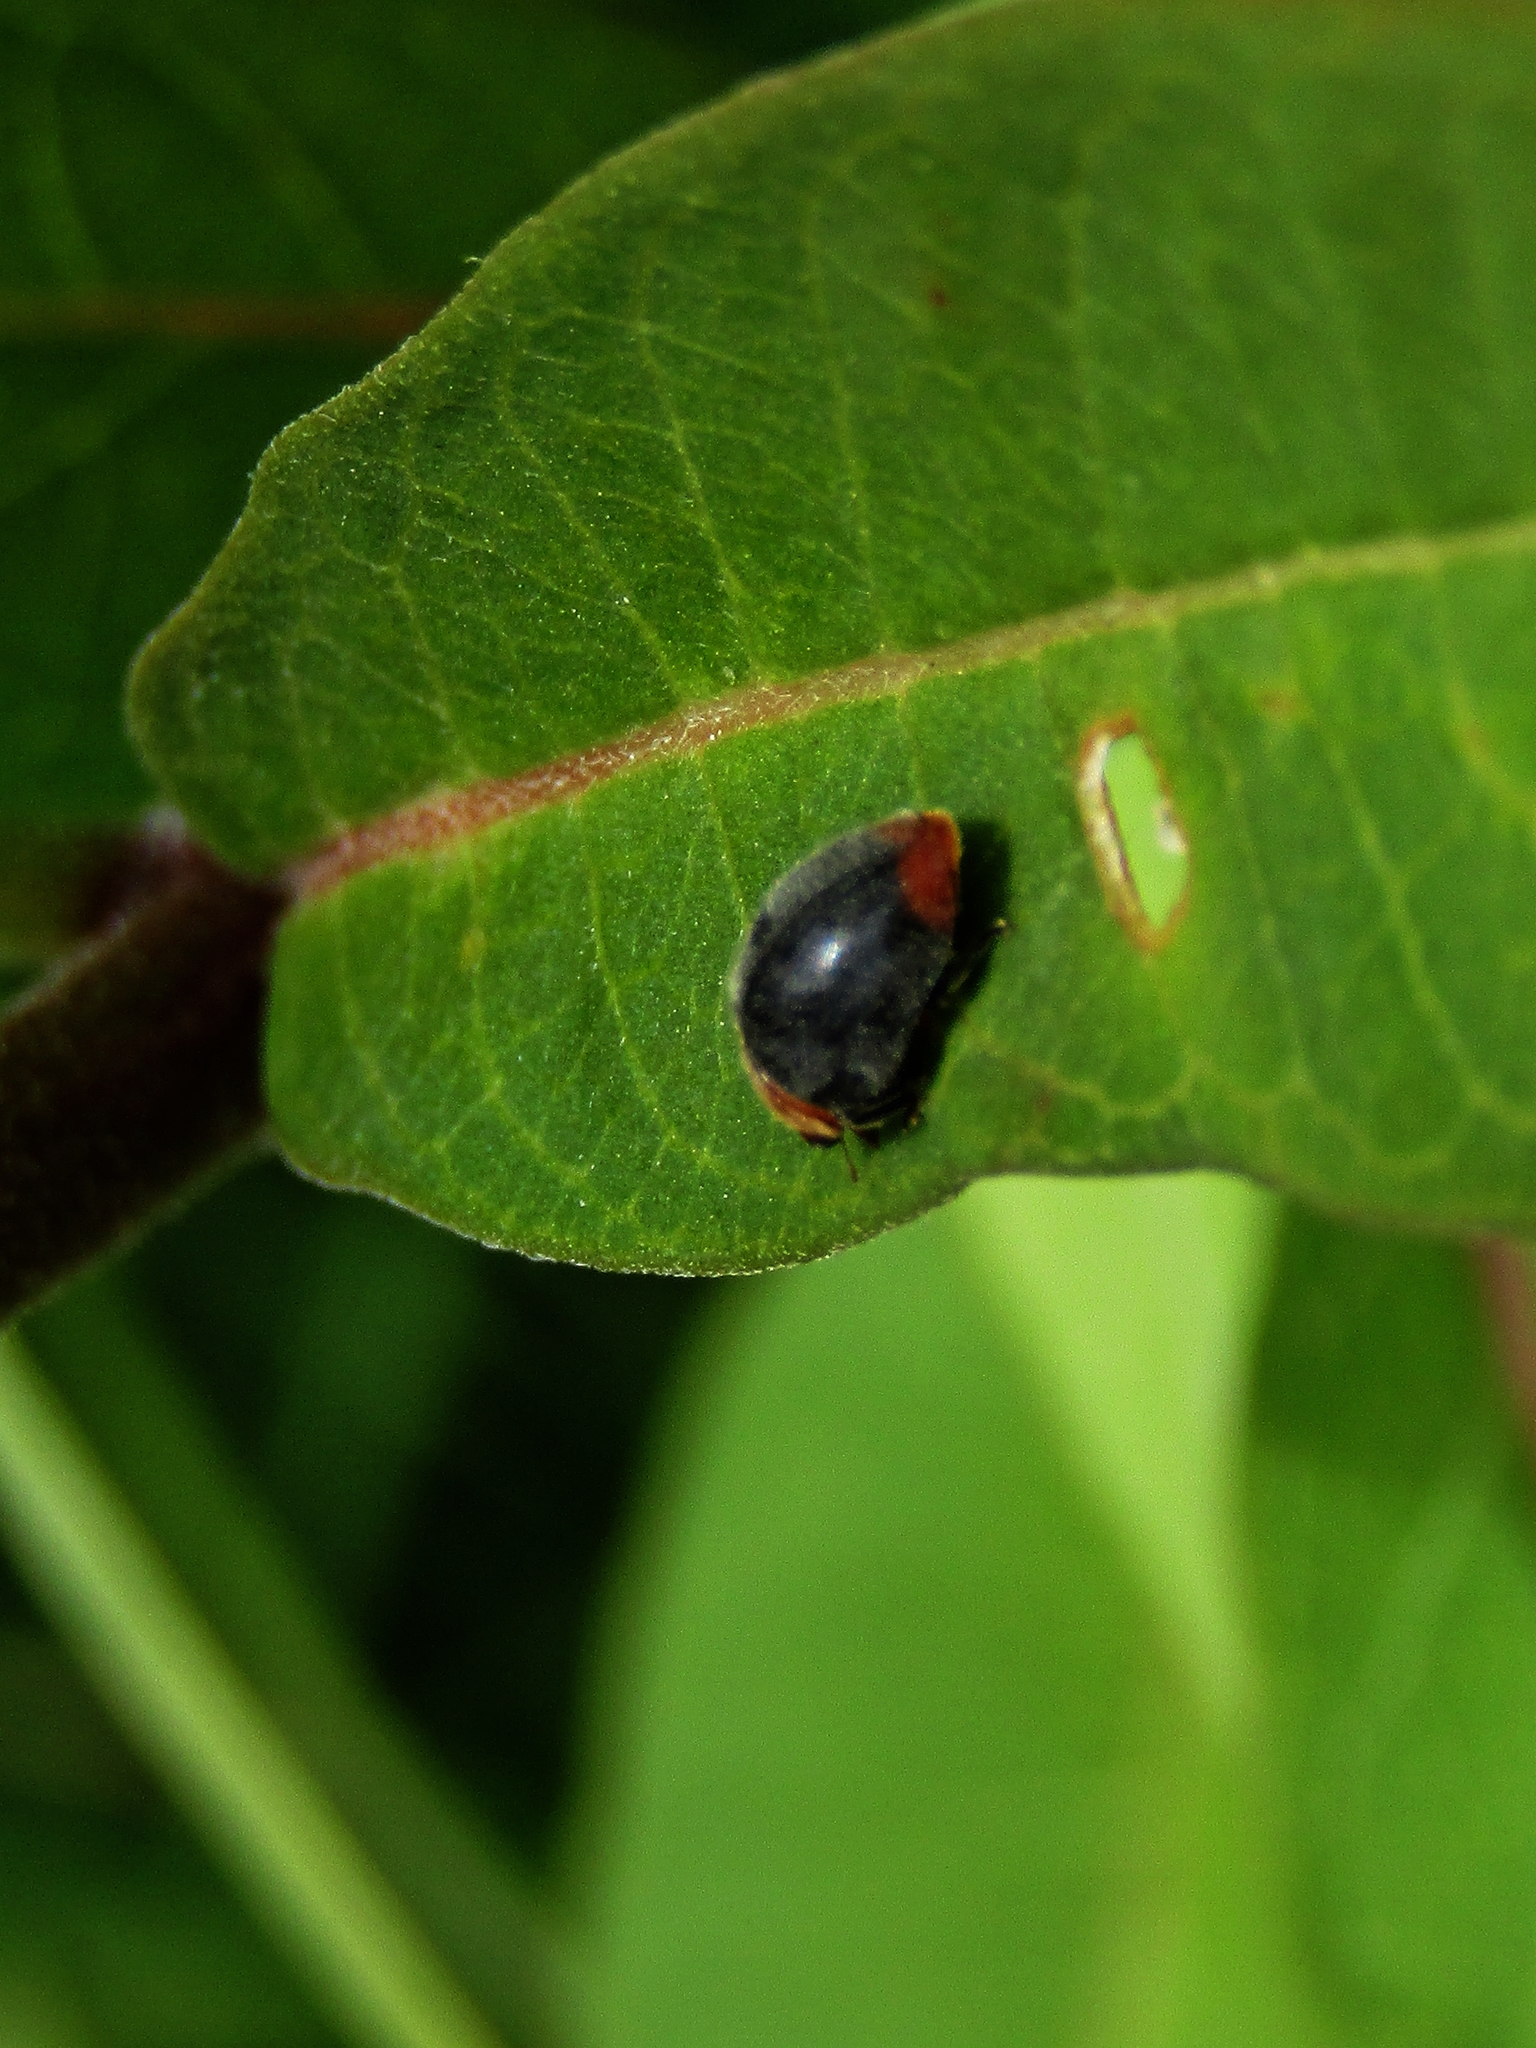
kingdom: Animalia
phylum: Arthropoda
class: Insecta
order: Coleoptera
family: Coccinellidae
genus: Cryptolaemus
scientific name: Cryptolaemus montrouzieri
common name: Mealybug destroyer
